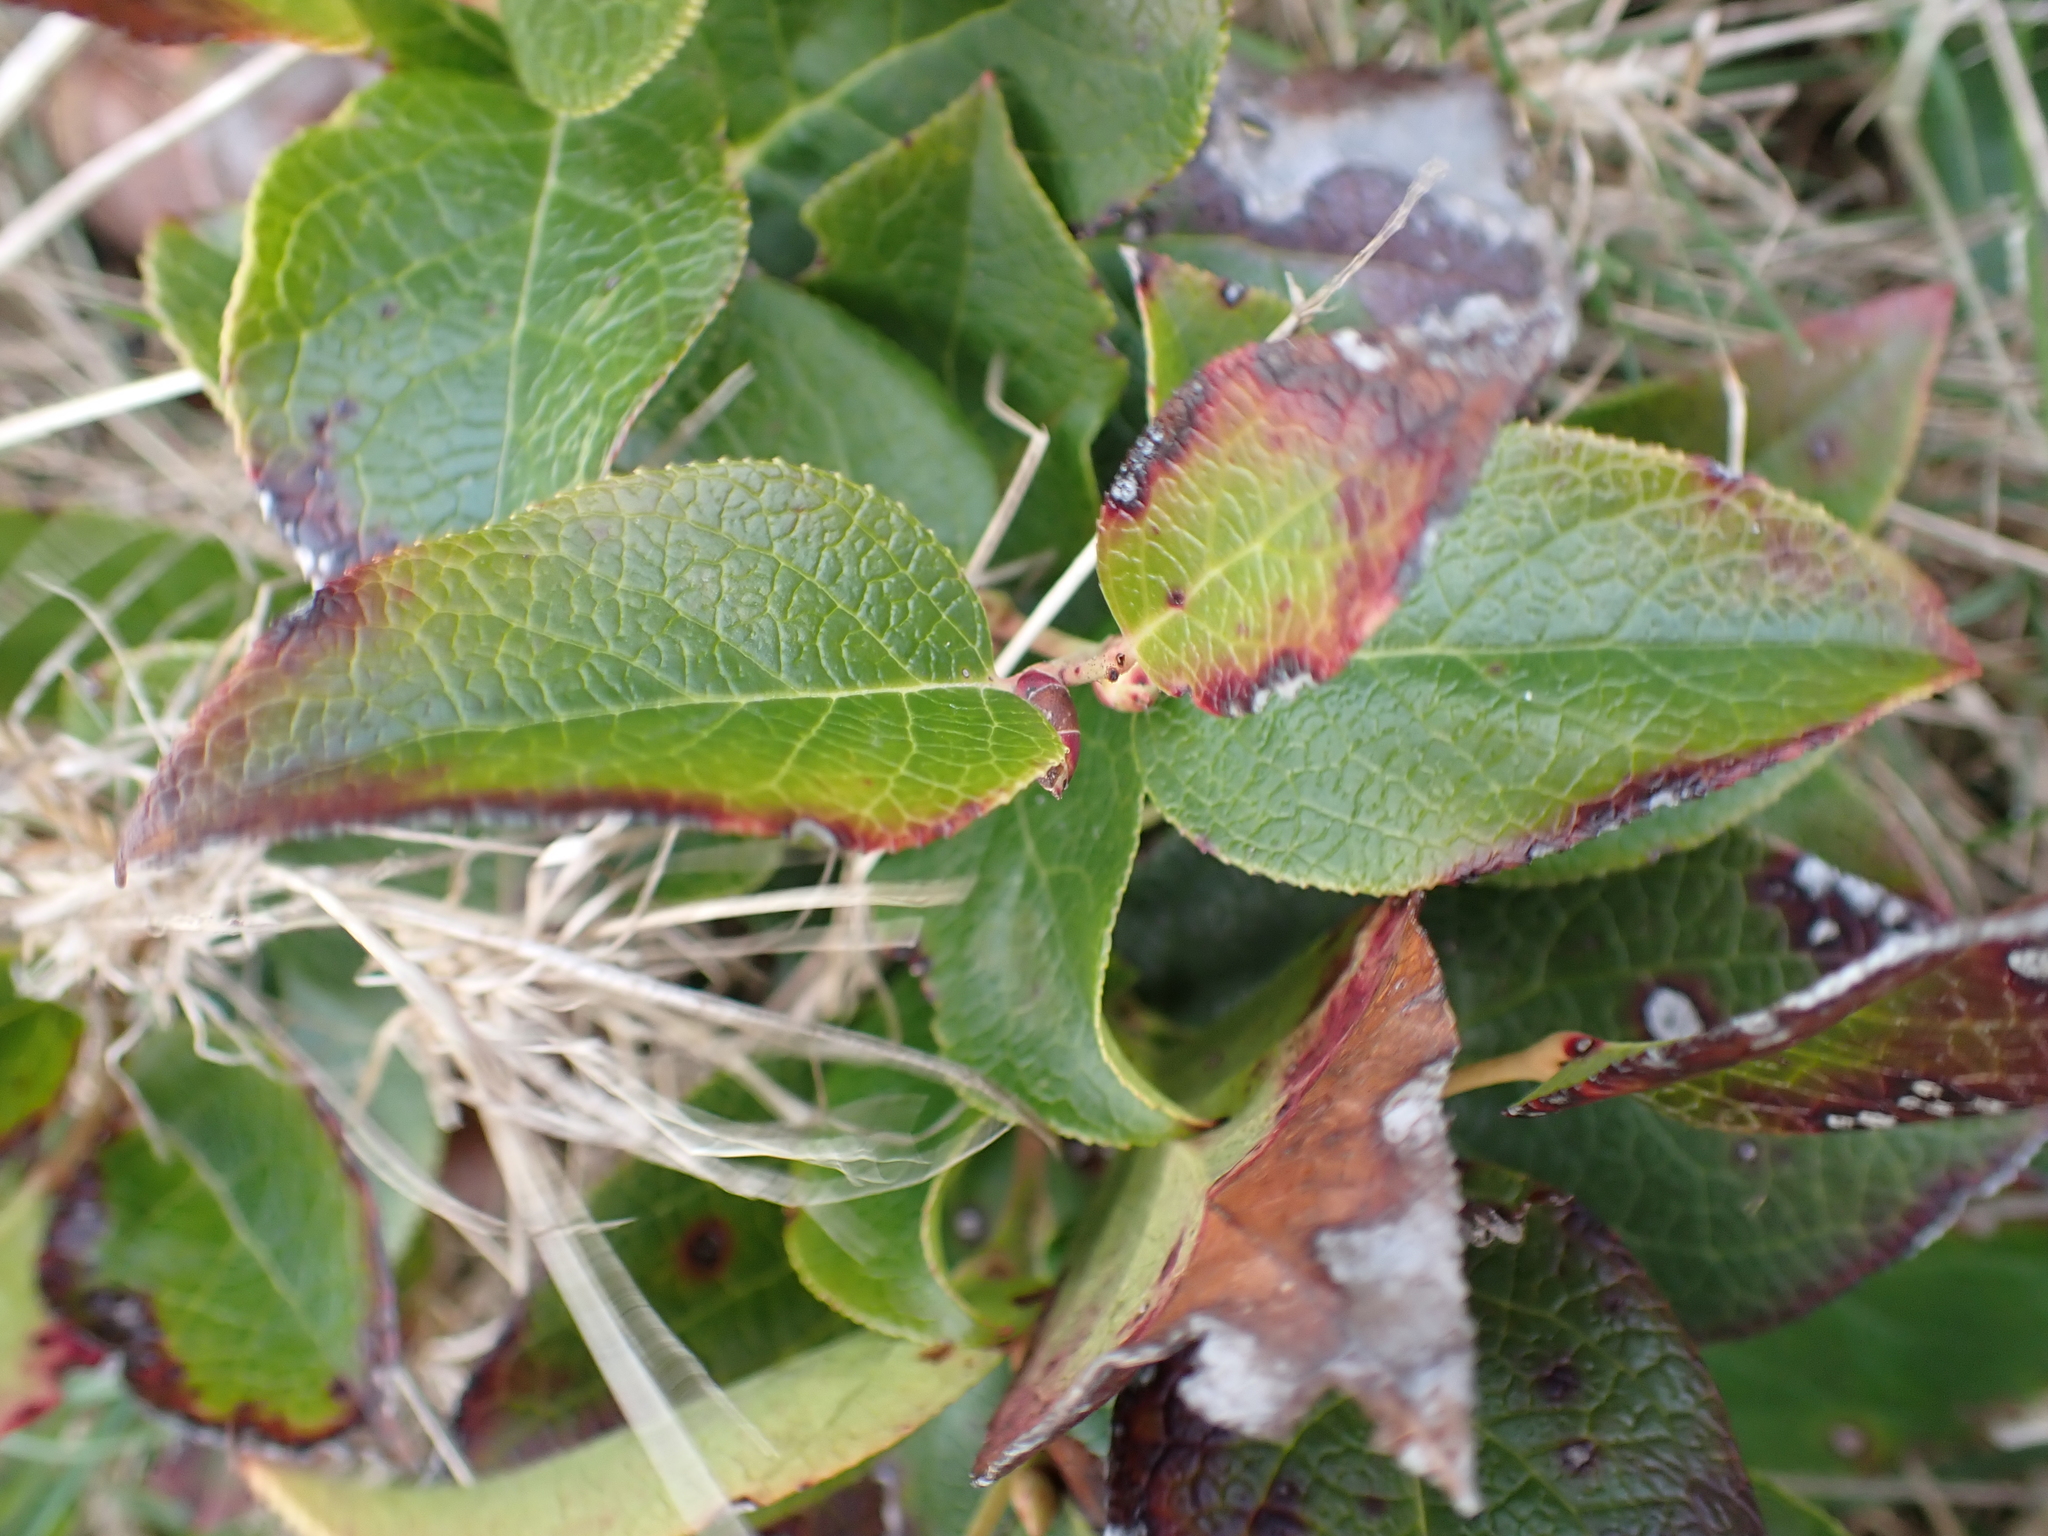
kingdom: Plantae
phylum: Tracheophyta
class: Magnoliopsida
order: Ericales
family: Ericaceae
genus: Gaultheria
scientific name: Gaultheria shallon
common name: Shallon
